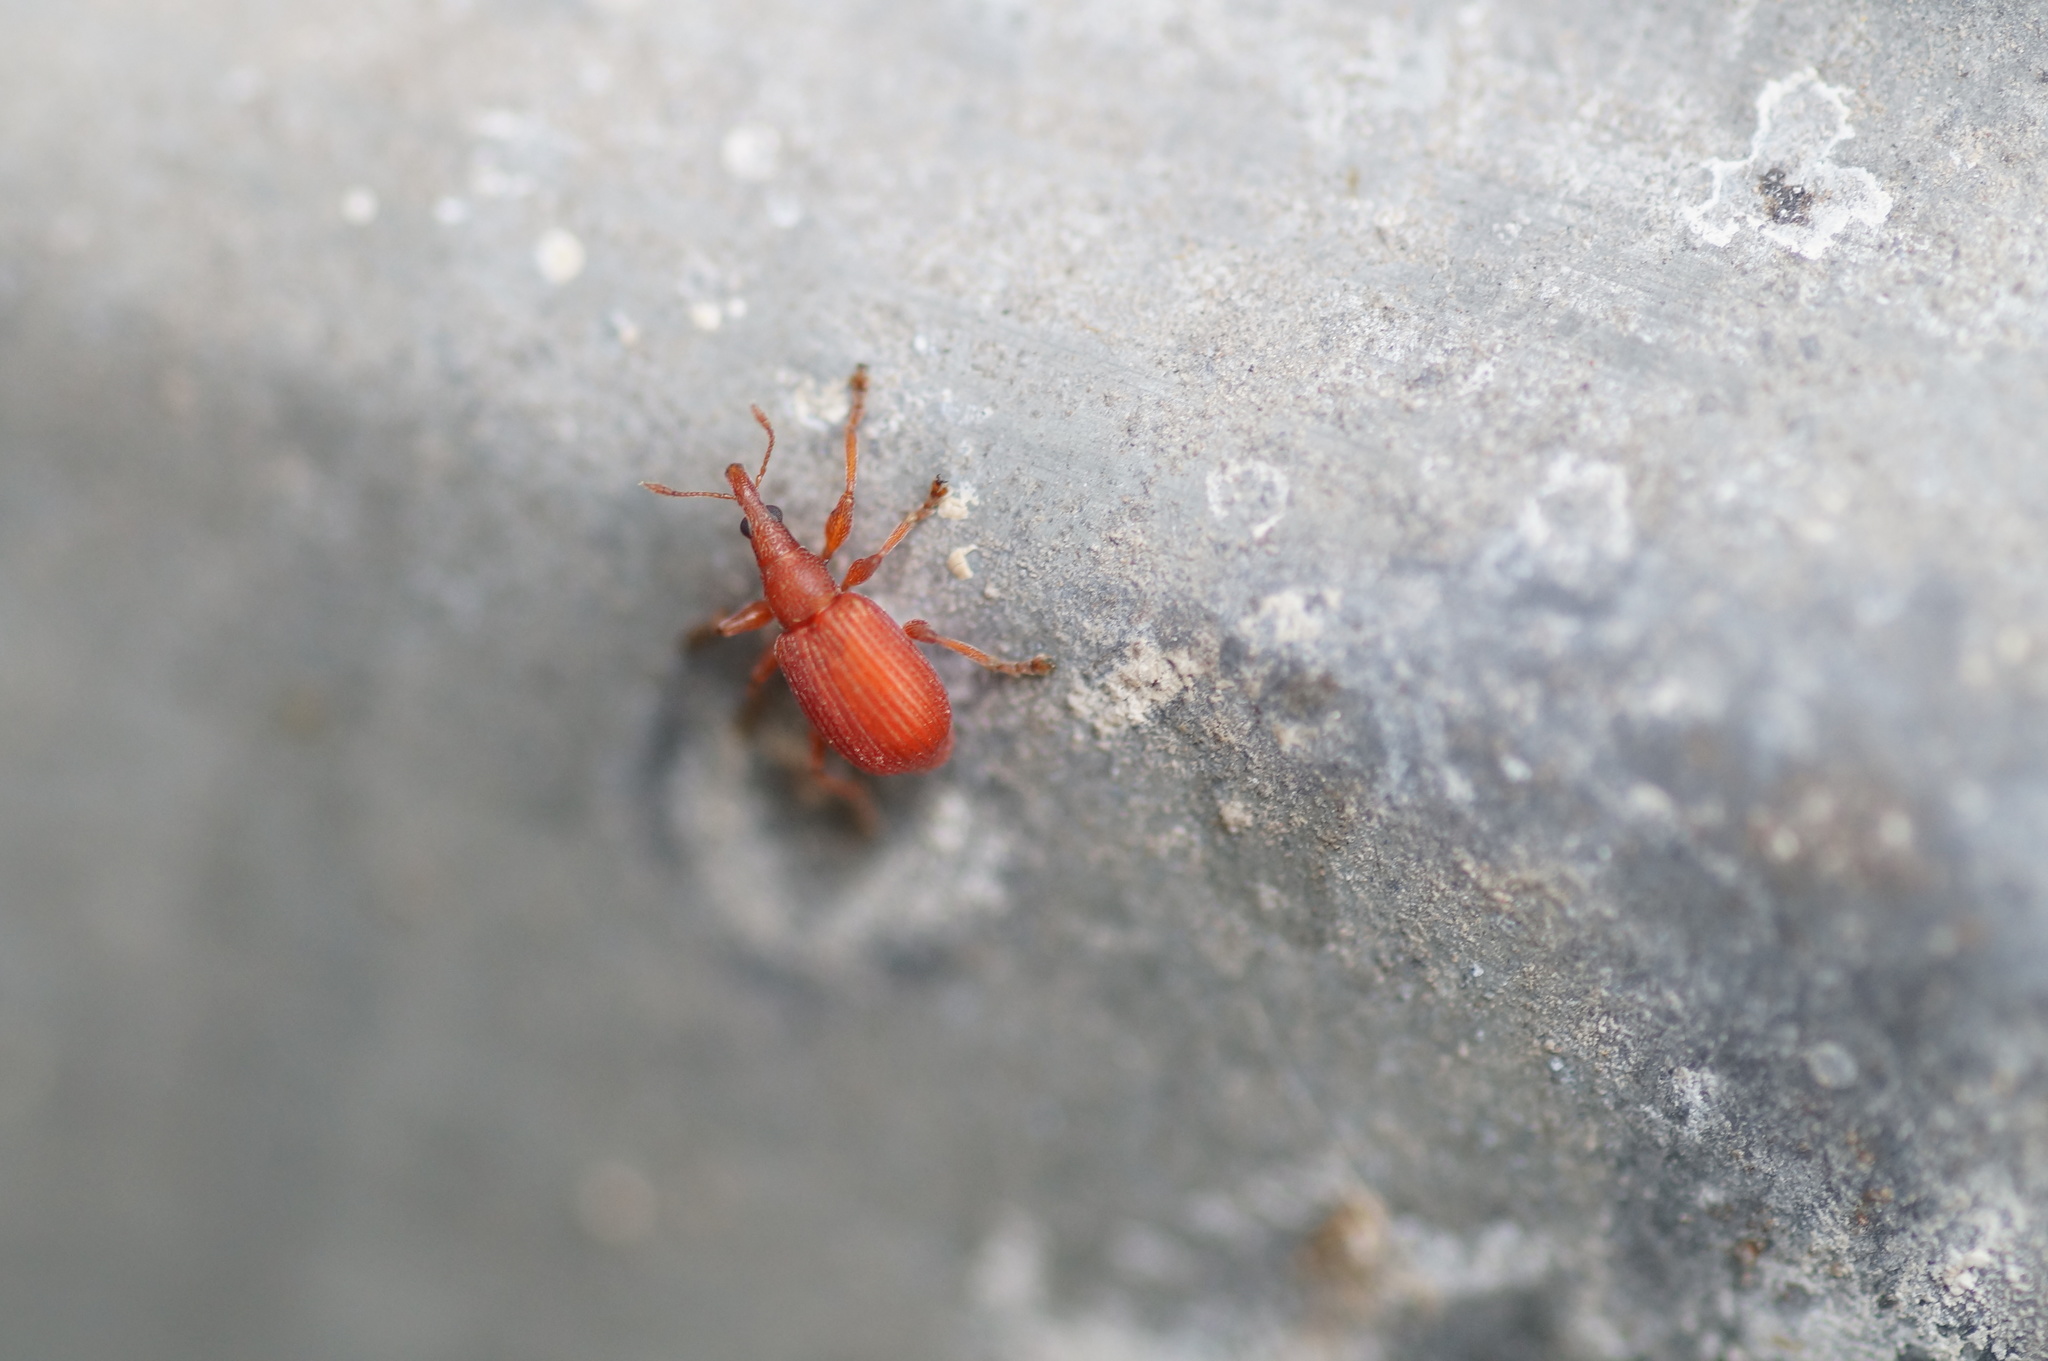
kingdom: Animalia
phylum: Arthropoda
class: Insecta
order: Coleoptera
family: Apionidae
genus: Apion
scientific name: Apion frumentarium
